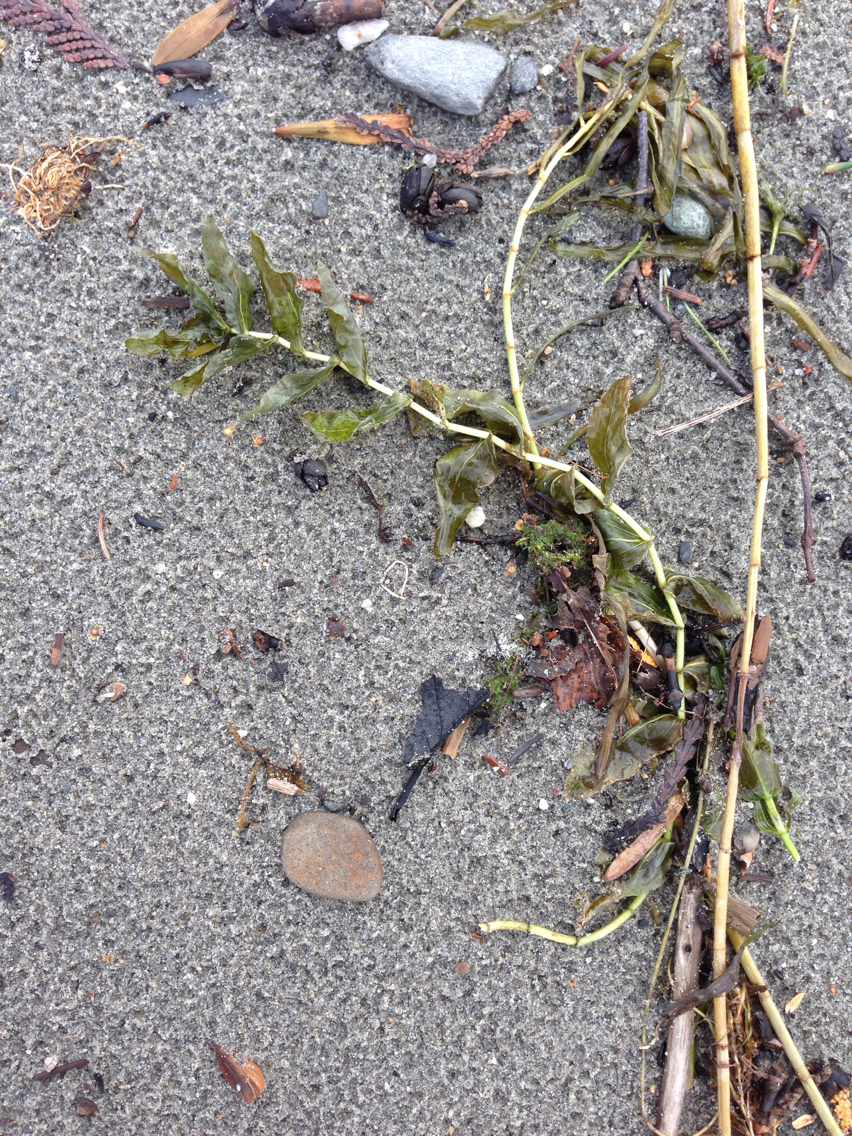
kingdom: Plantae
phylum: Tracheophyta
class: Liliopsida
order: Alismatales
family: Potamogetonaceae
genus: Potamogeton
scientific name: Potamogeton perfoliatus
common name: Perfoliate pondweed
